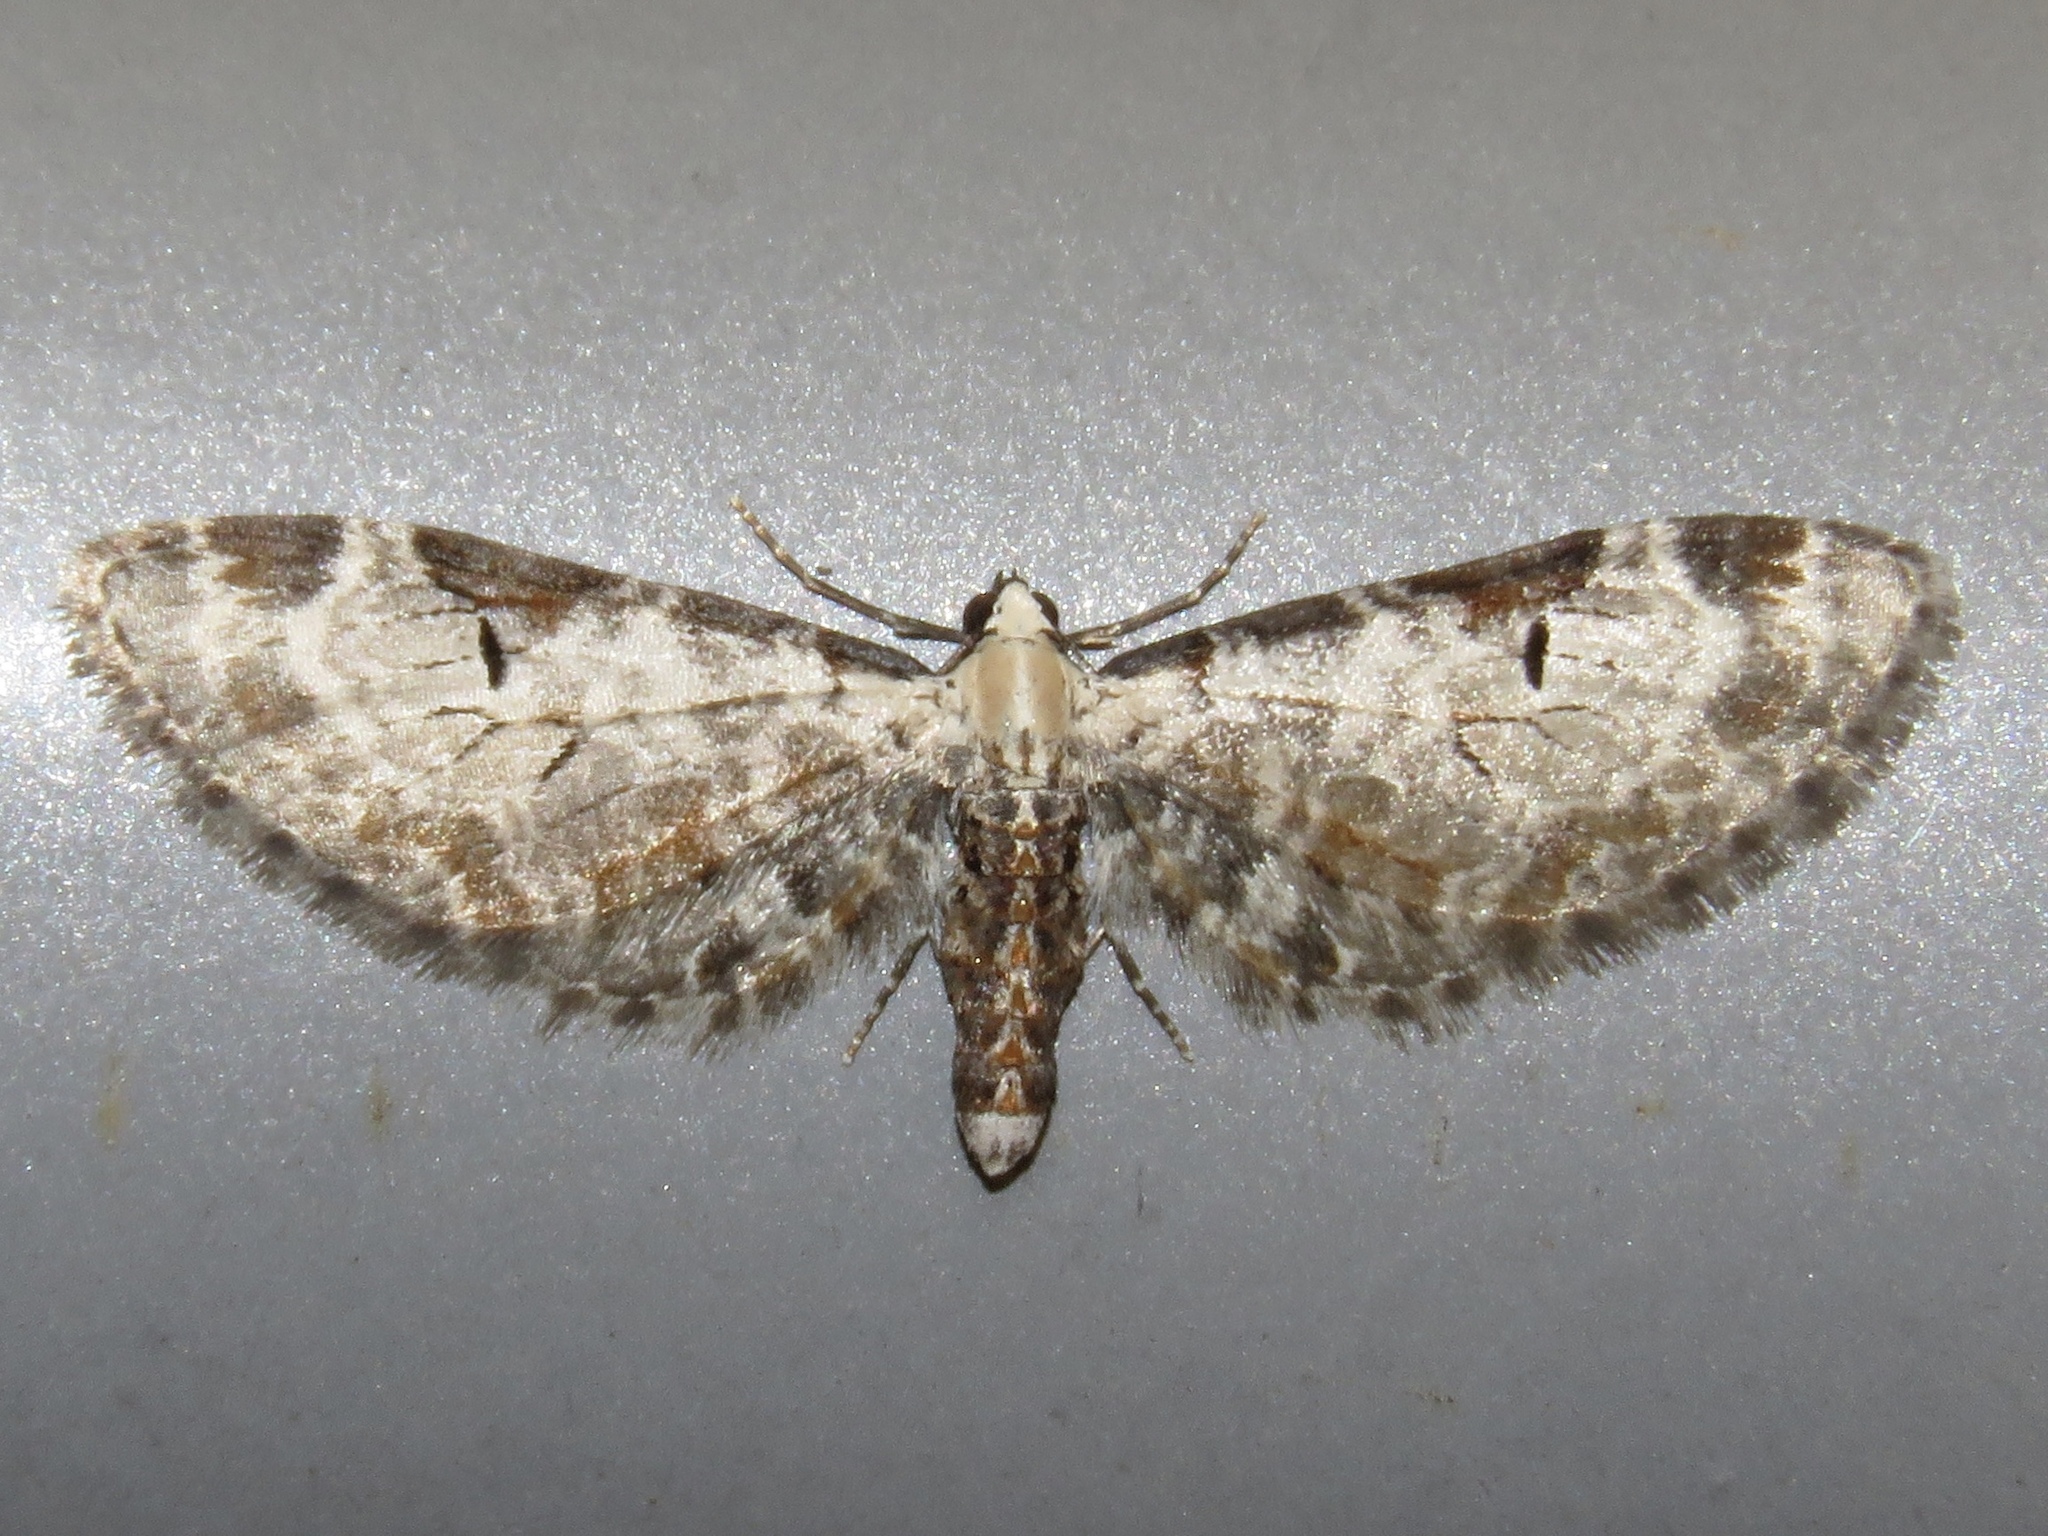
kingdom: Animalia
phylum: Arthropoda
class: Insecta
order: Lepidoptera
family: Geometridae
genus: Eupithecia
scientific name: Eupithecia ravocostaliata
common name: Great varigated pug
